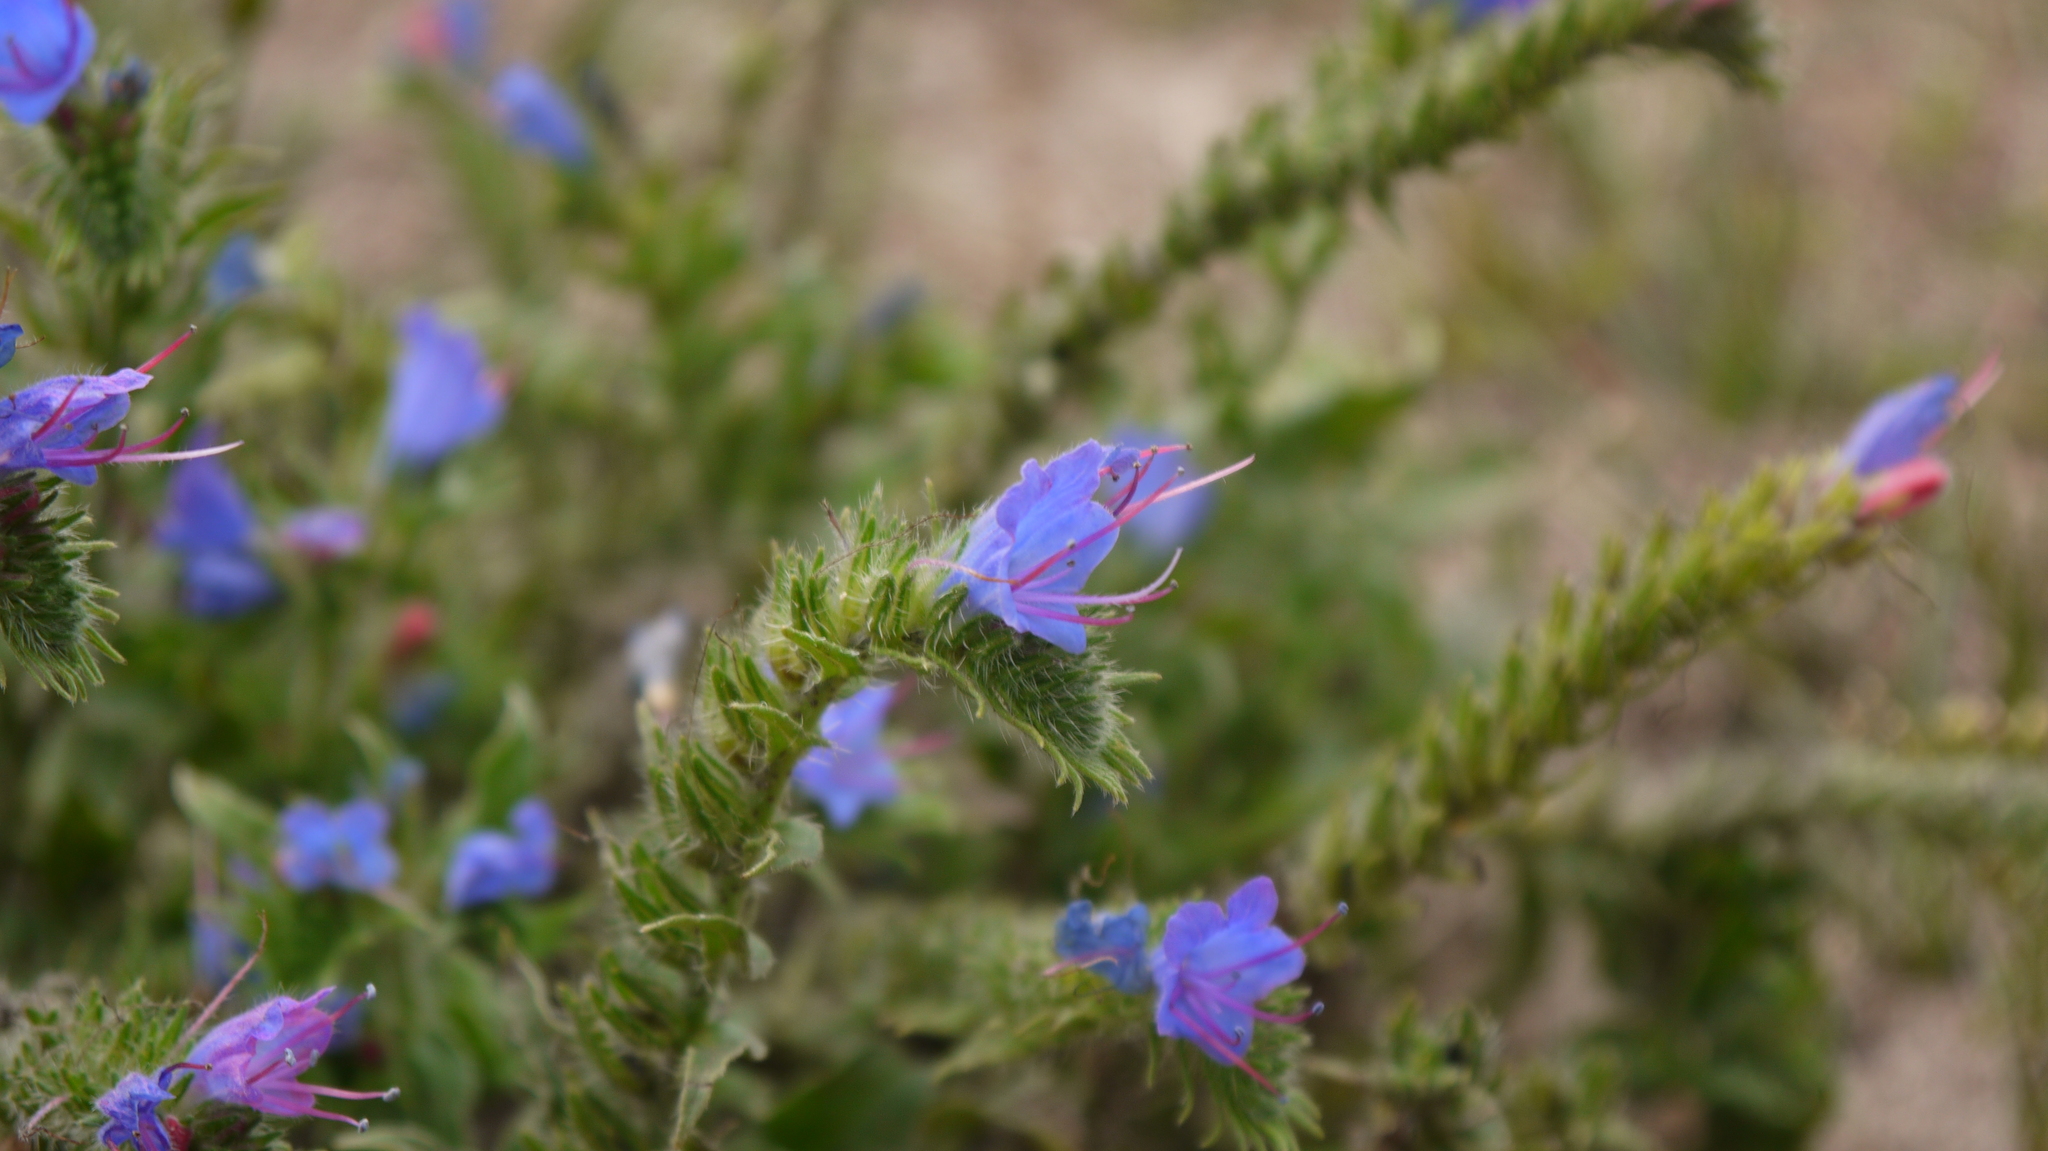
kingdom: Plantae
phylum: Tracheophyta
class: Magnoliopsida
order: Boraginales
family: Boraginaceae
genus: Echium
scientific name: Echium vulgare
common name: Common viper's bugloss
